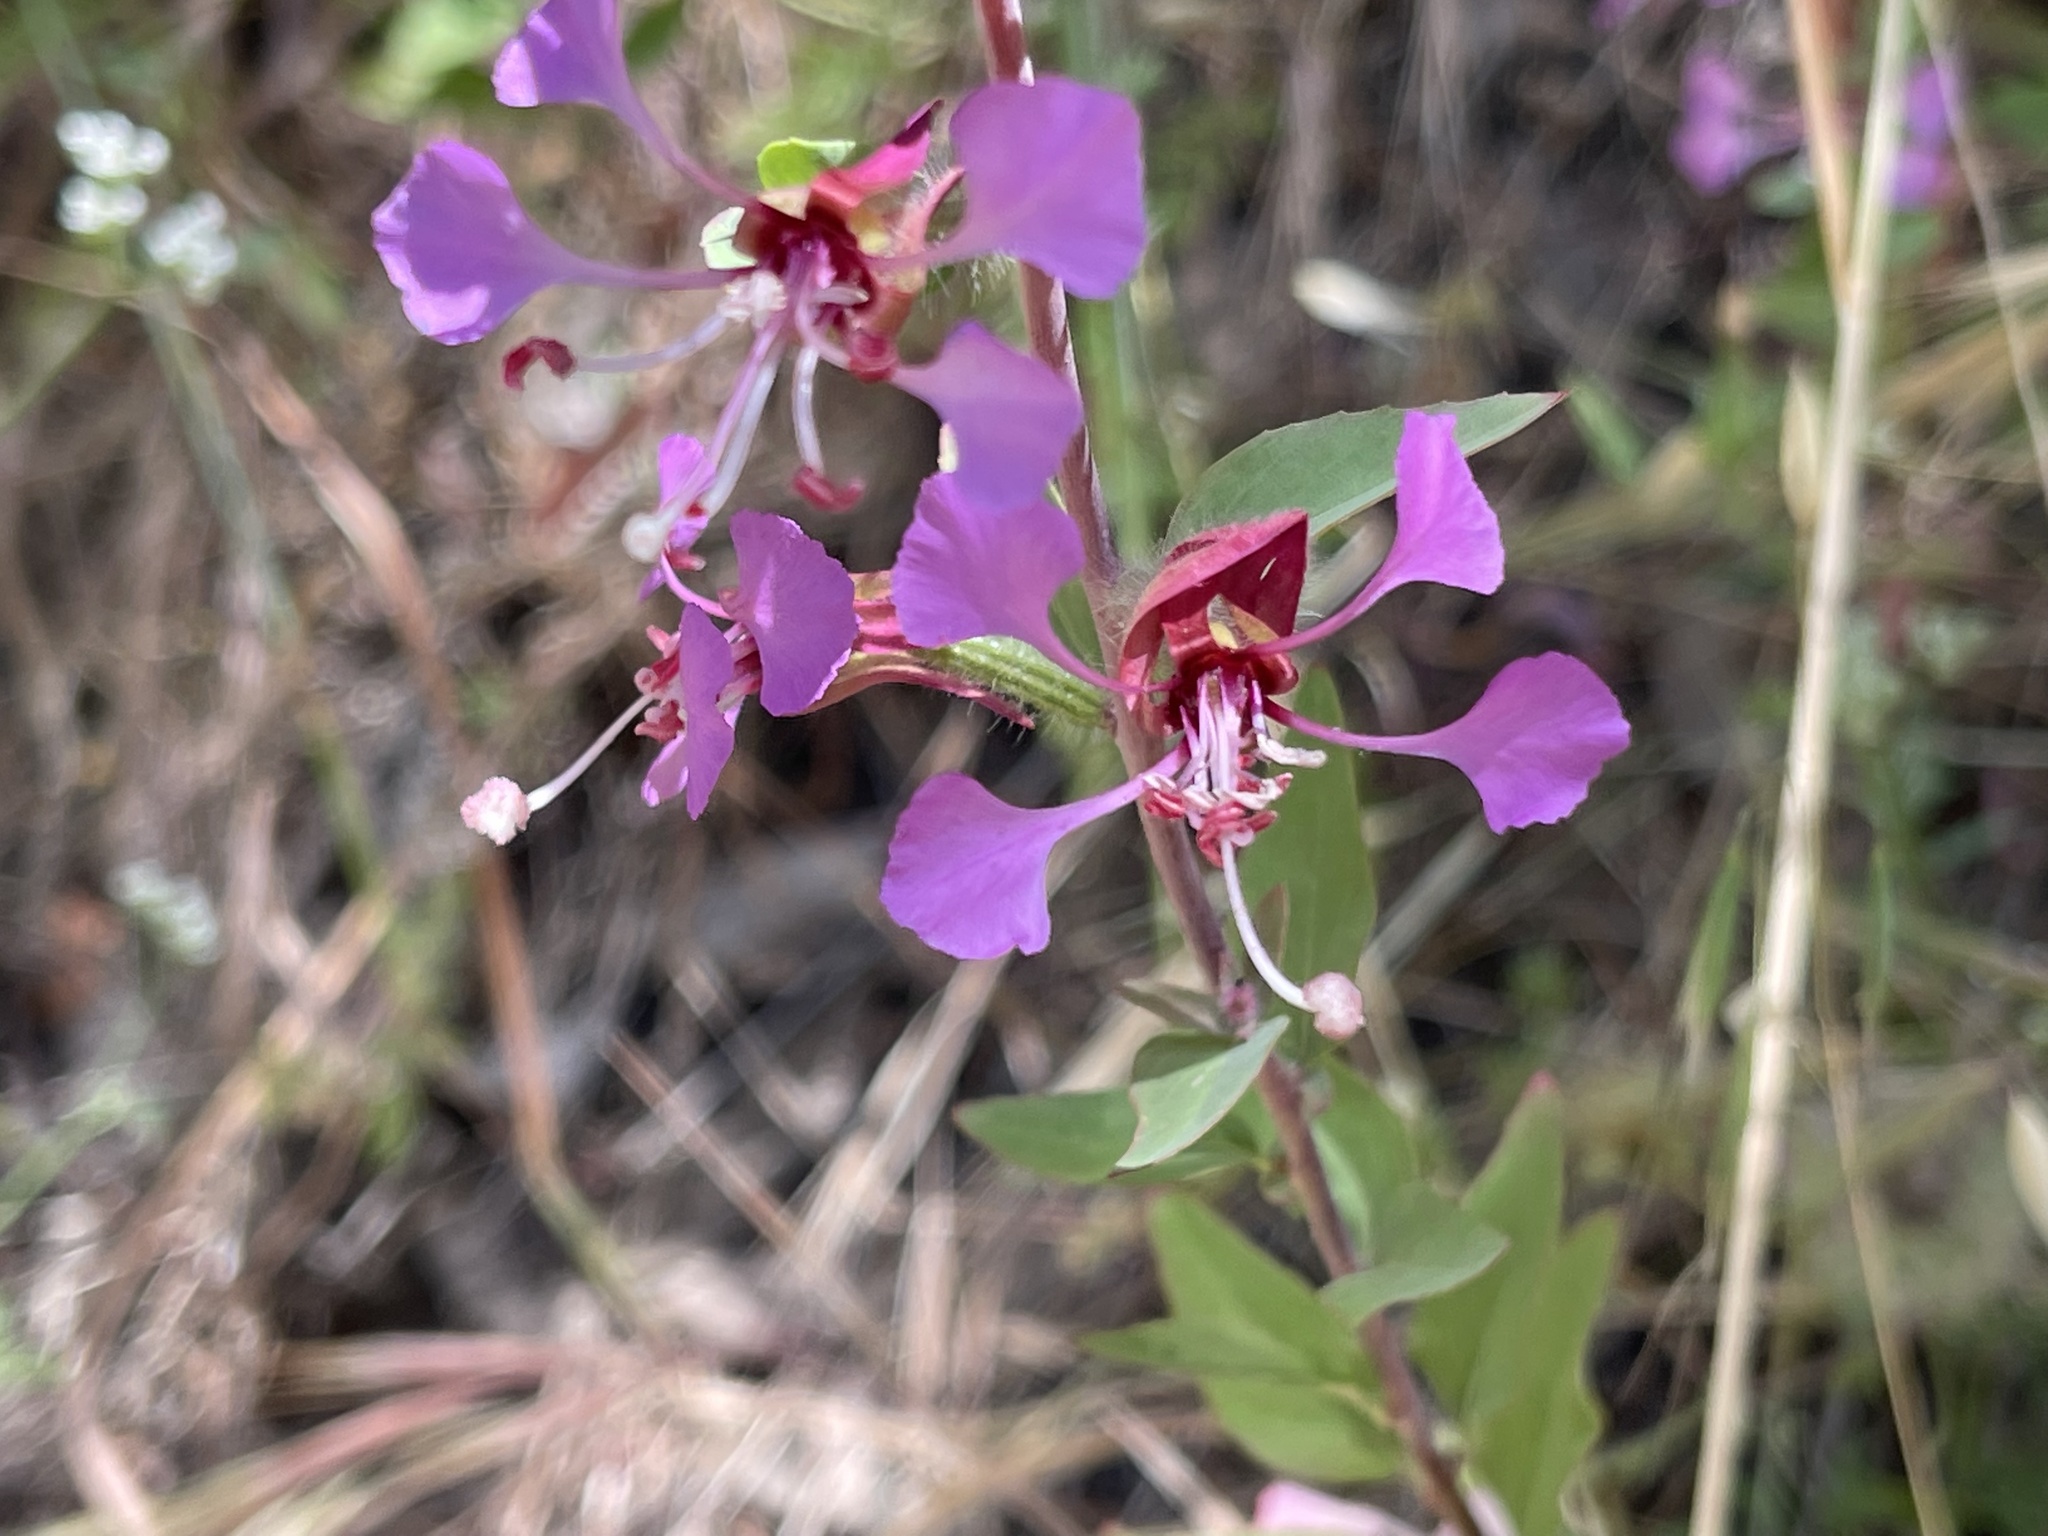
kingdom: Plantae
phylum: Tracheophyta
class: Magnoliopsida
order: Myrtales
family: Onagraceae
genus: Clarkia
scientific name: Clarkia unguiculata
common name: Clarkia
